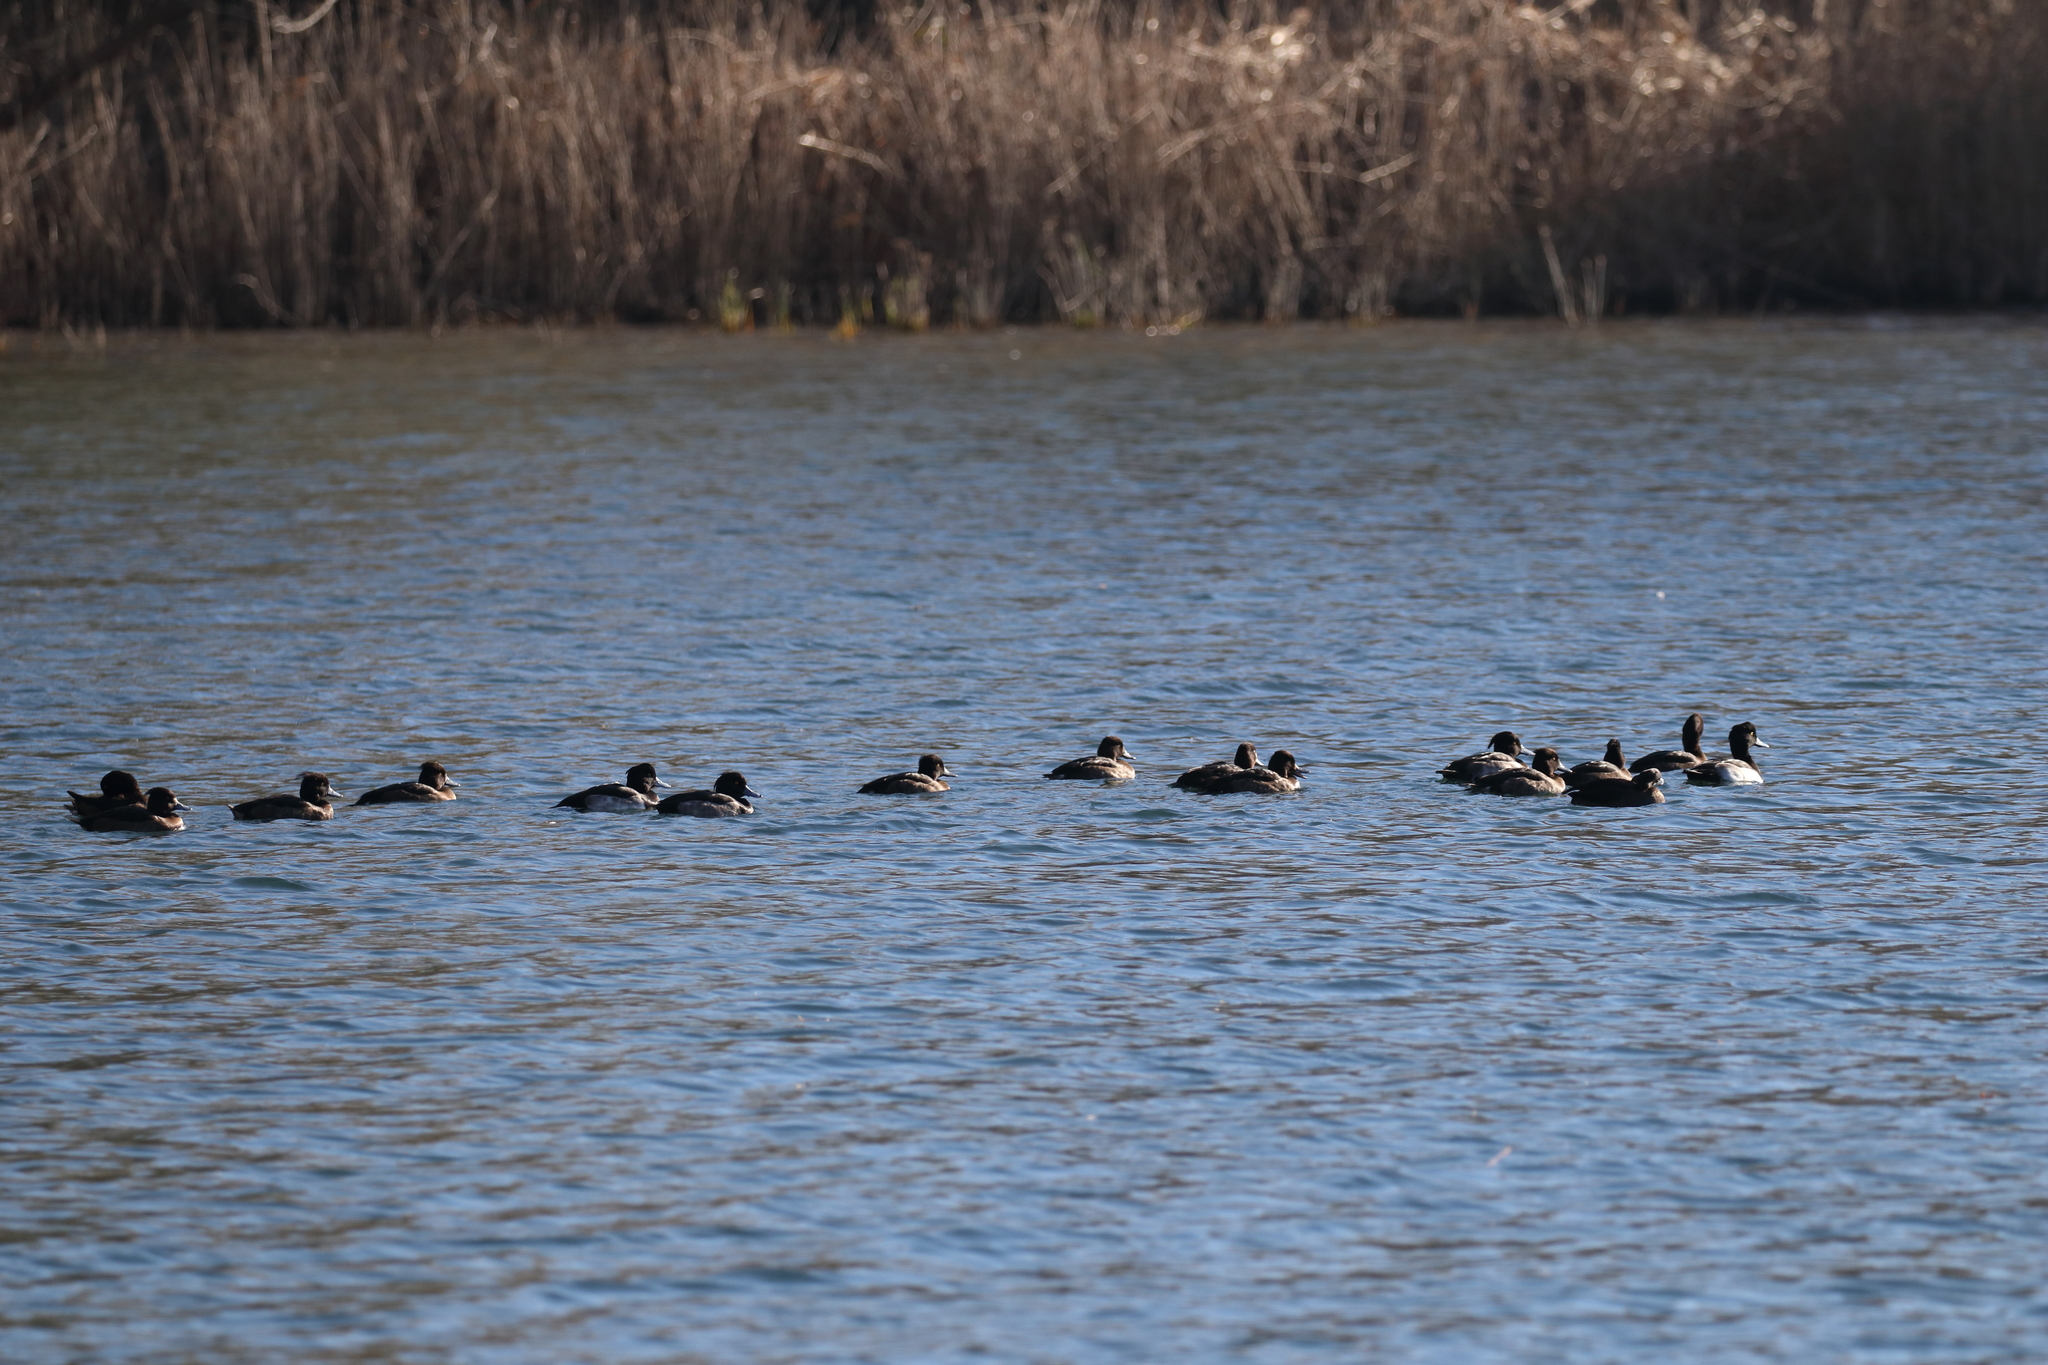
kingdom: Animalia
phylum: Chordata
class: Aves
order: Anseriformes
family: Anatidae
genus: Aythya
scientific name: Aythya fuligula
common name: Tufted duck
